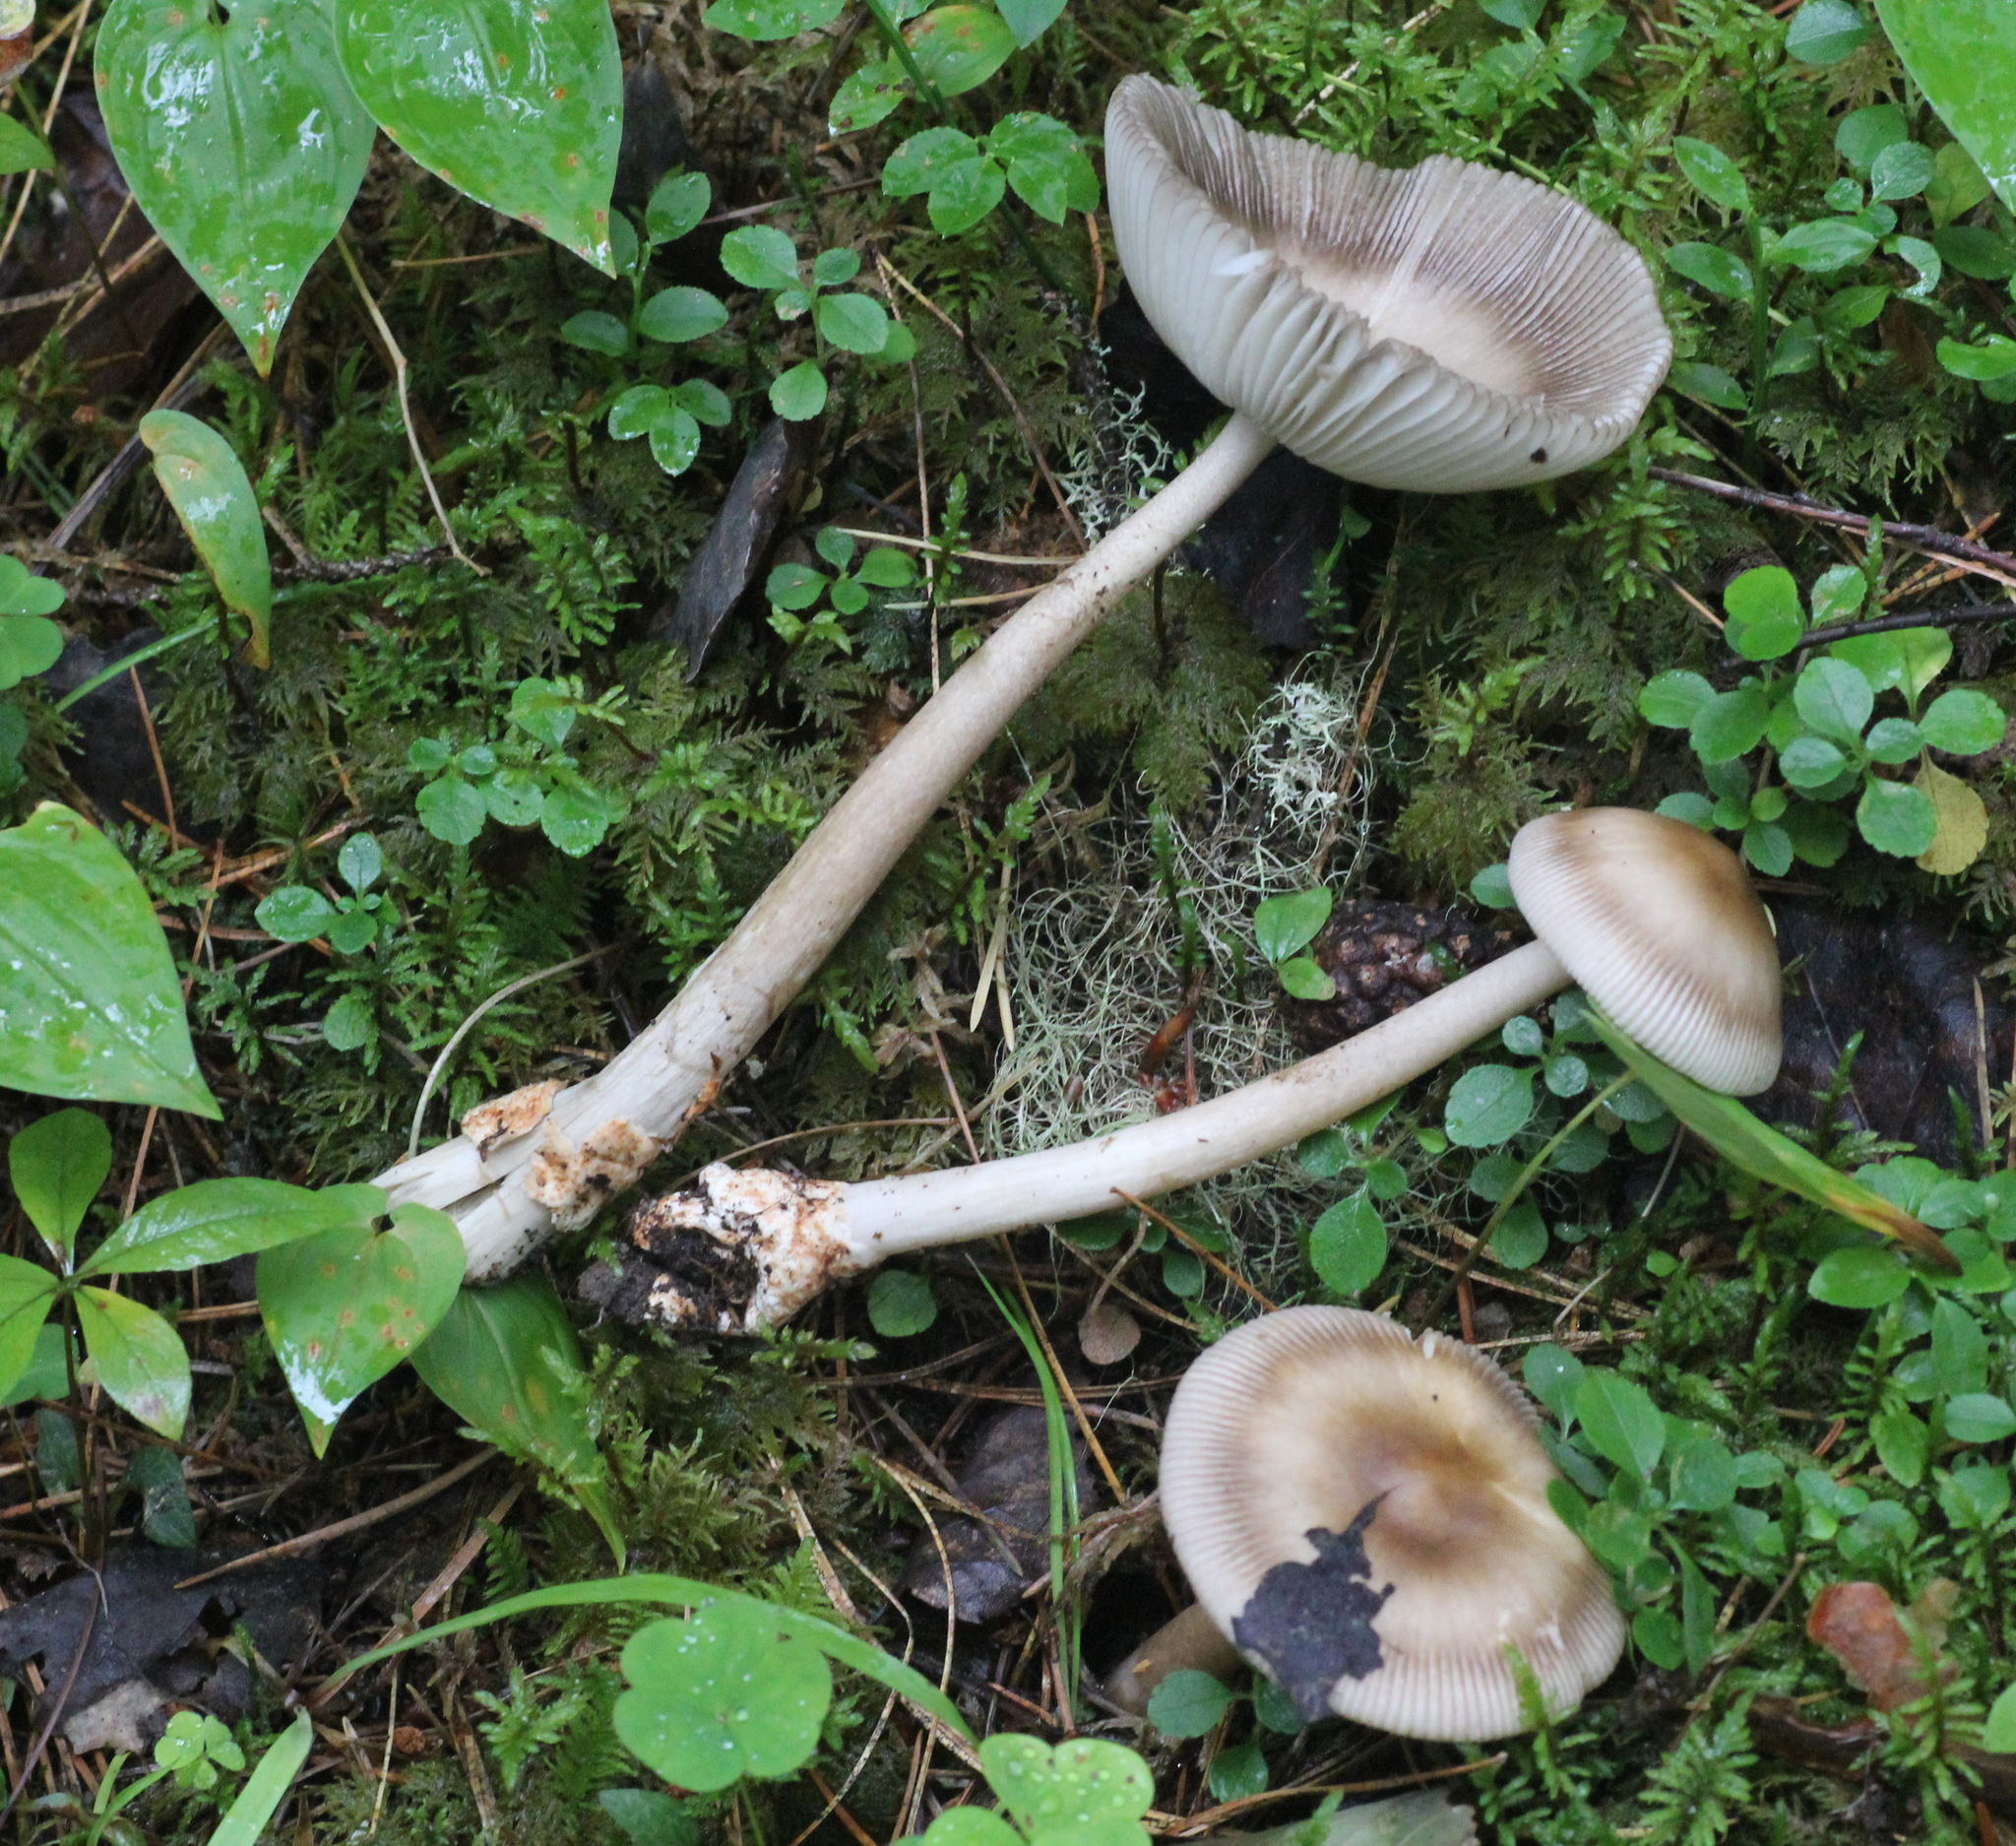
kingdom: Fungi
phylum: Basidiomycota
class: Agaricomycetes
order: Agaricales
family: Amanitaceae
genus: Amanita
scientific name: Amanita battarrae
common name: Banded amanita
